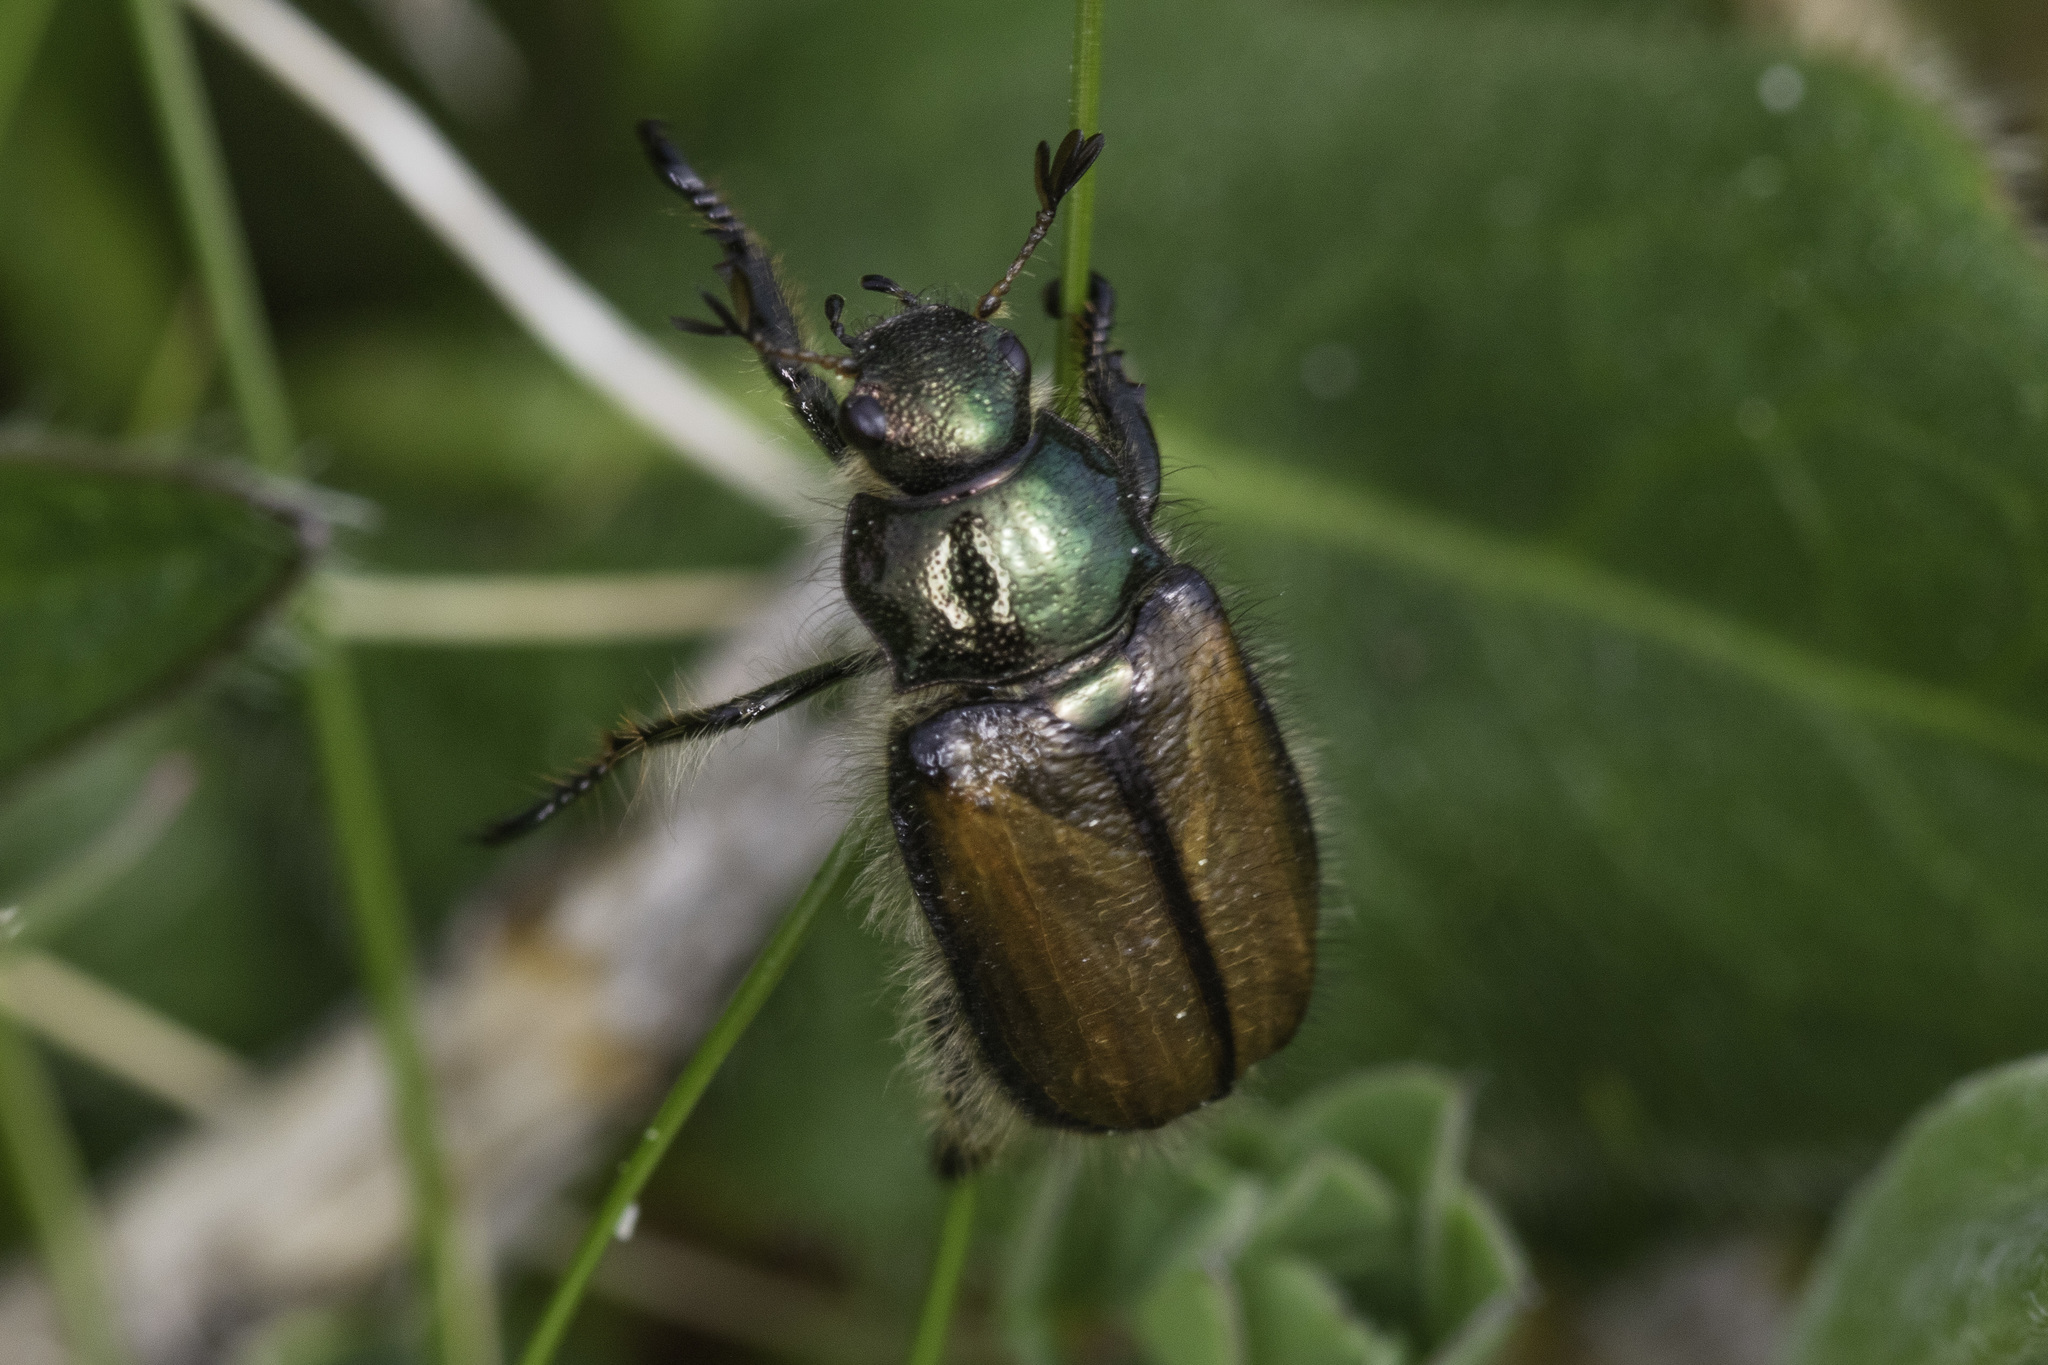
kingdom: Animalia
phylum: Arthropoda
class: Insecta
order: Coleoptera
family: Scarabaeidae
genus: Phyllopertha
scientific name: Phyllopertha horticola
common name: Garden chafer
